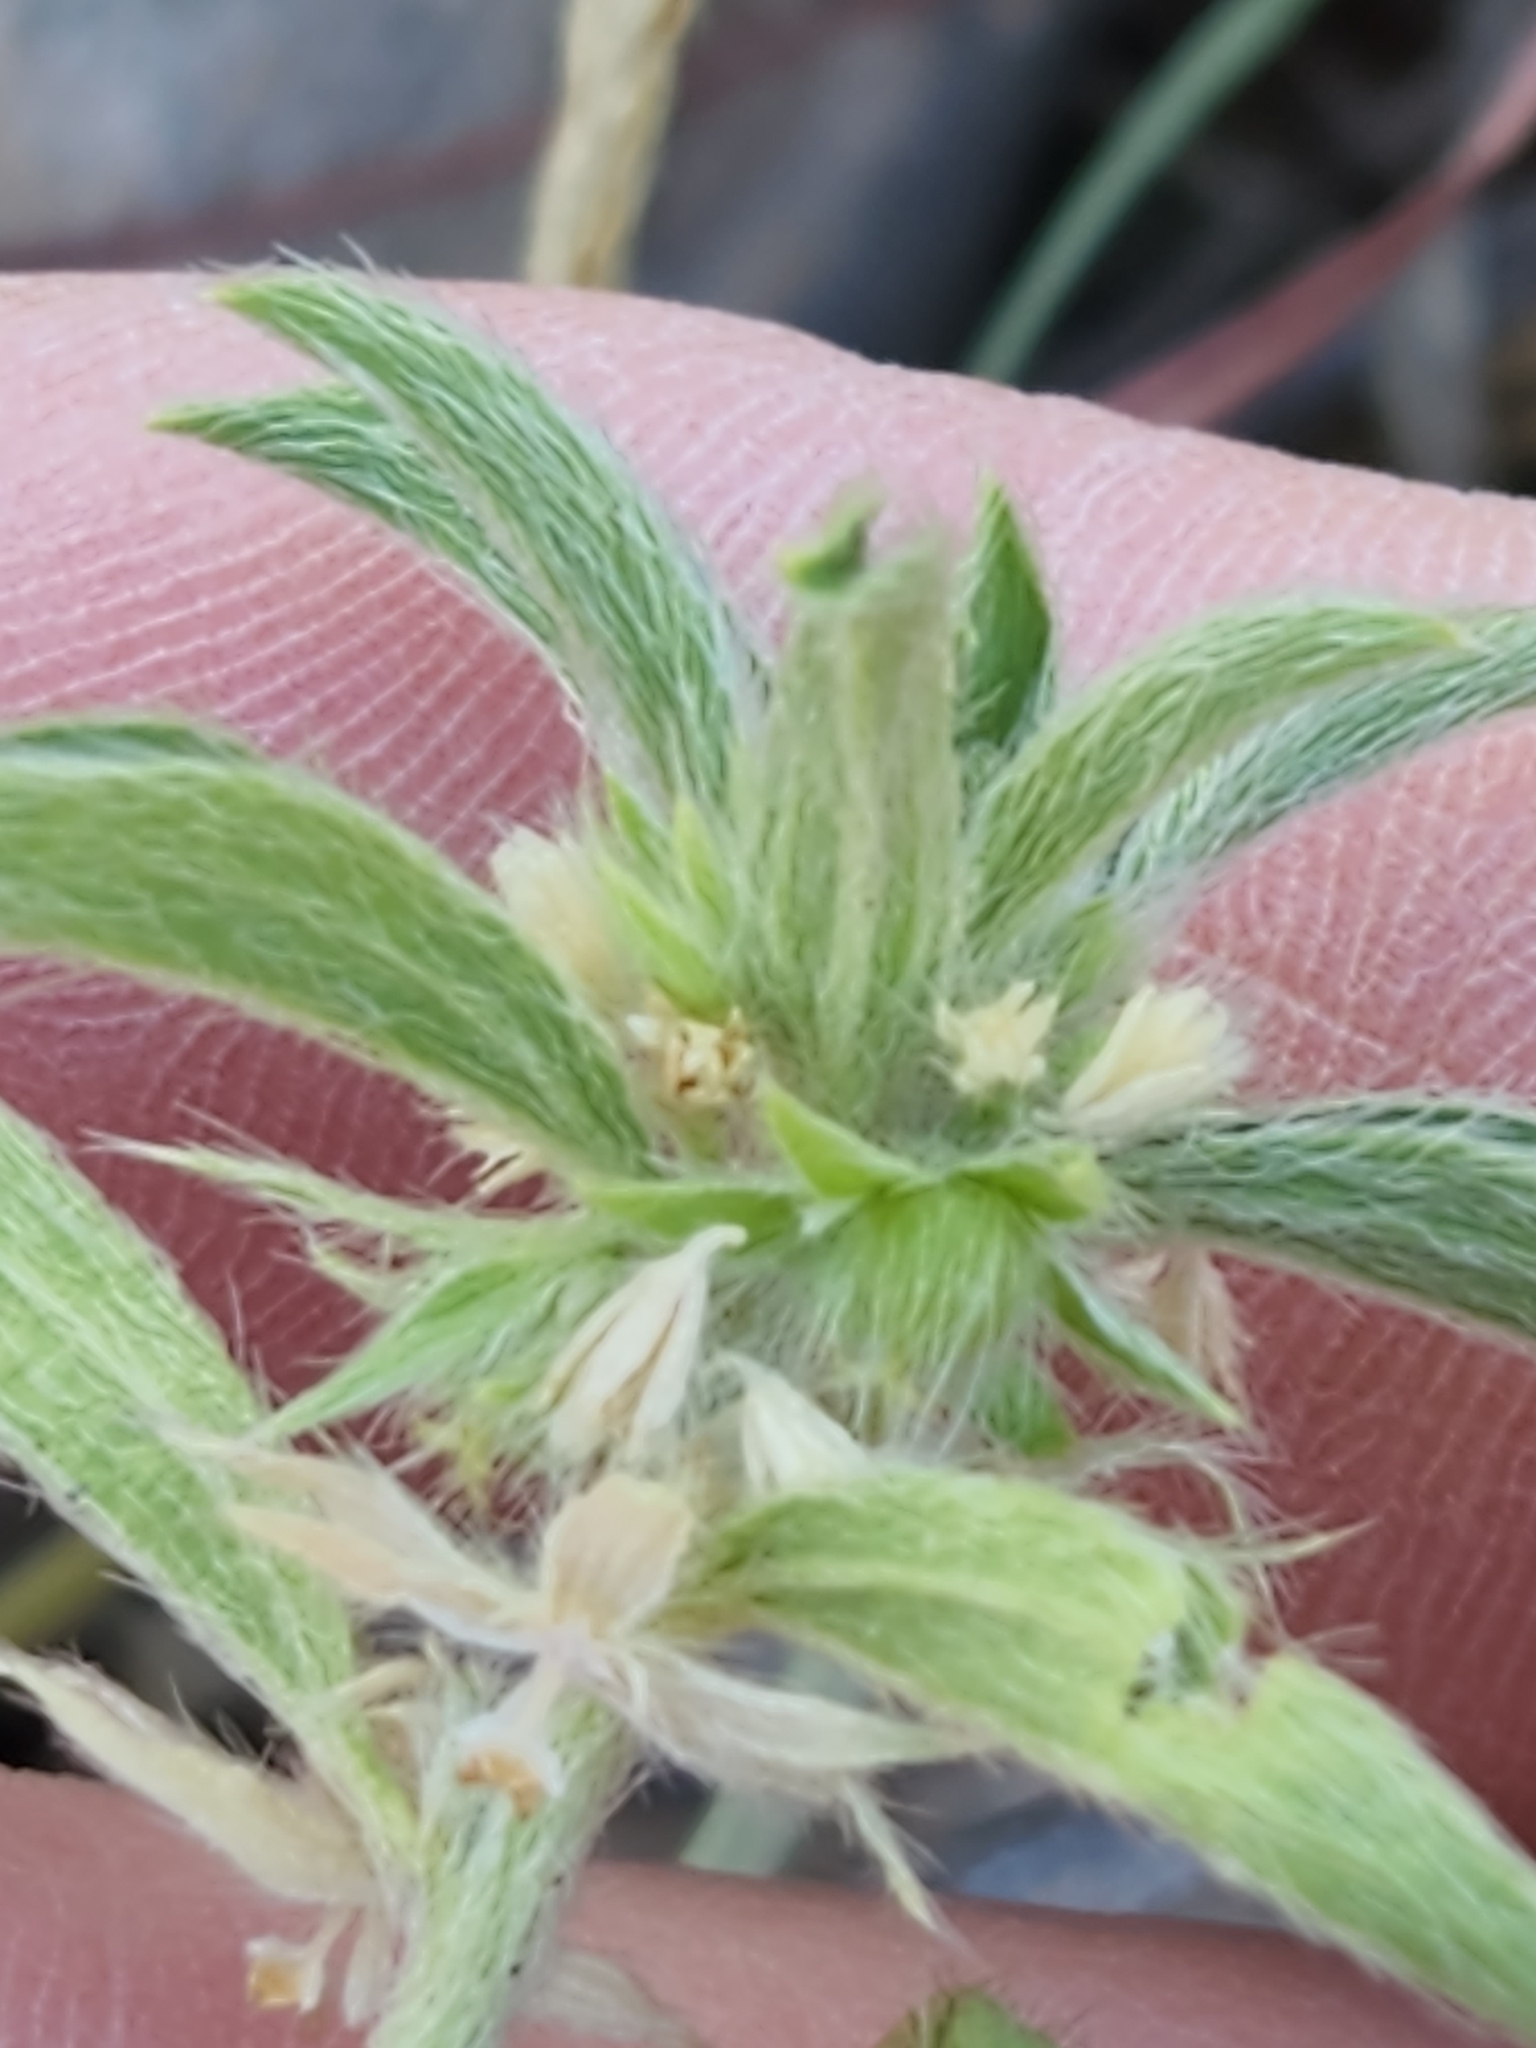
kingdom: Plantae
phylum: Tracheophyta
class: Magnoliopsida
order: Malpighiales
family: Euphorbiaceae
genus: Ditaxis
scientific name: Ditaxis serrata
